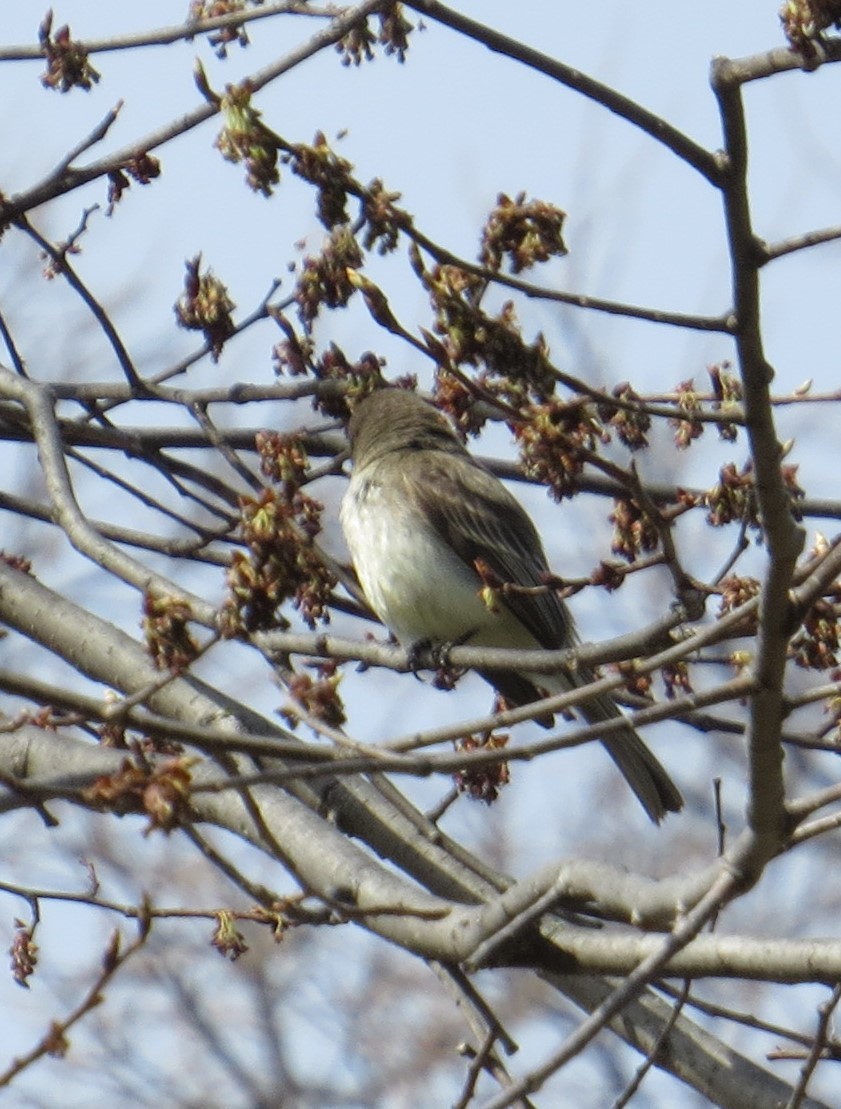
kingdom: Animalia
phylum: Chordata
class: Aves
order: Passeriformes
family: Tyrannidae
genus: Sayornis
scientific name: Sayornis phoebe
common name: Eastern phoebe
